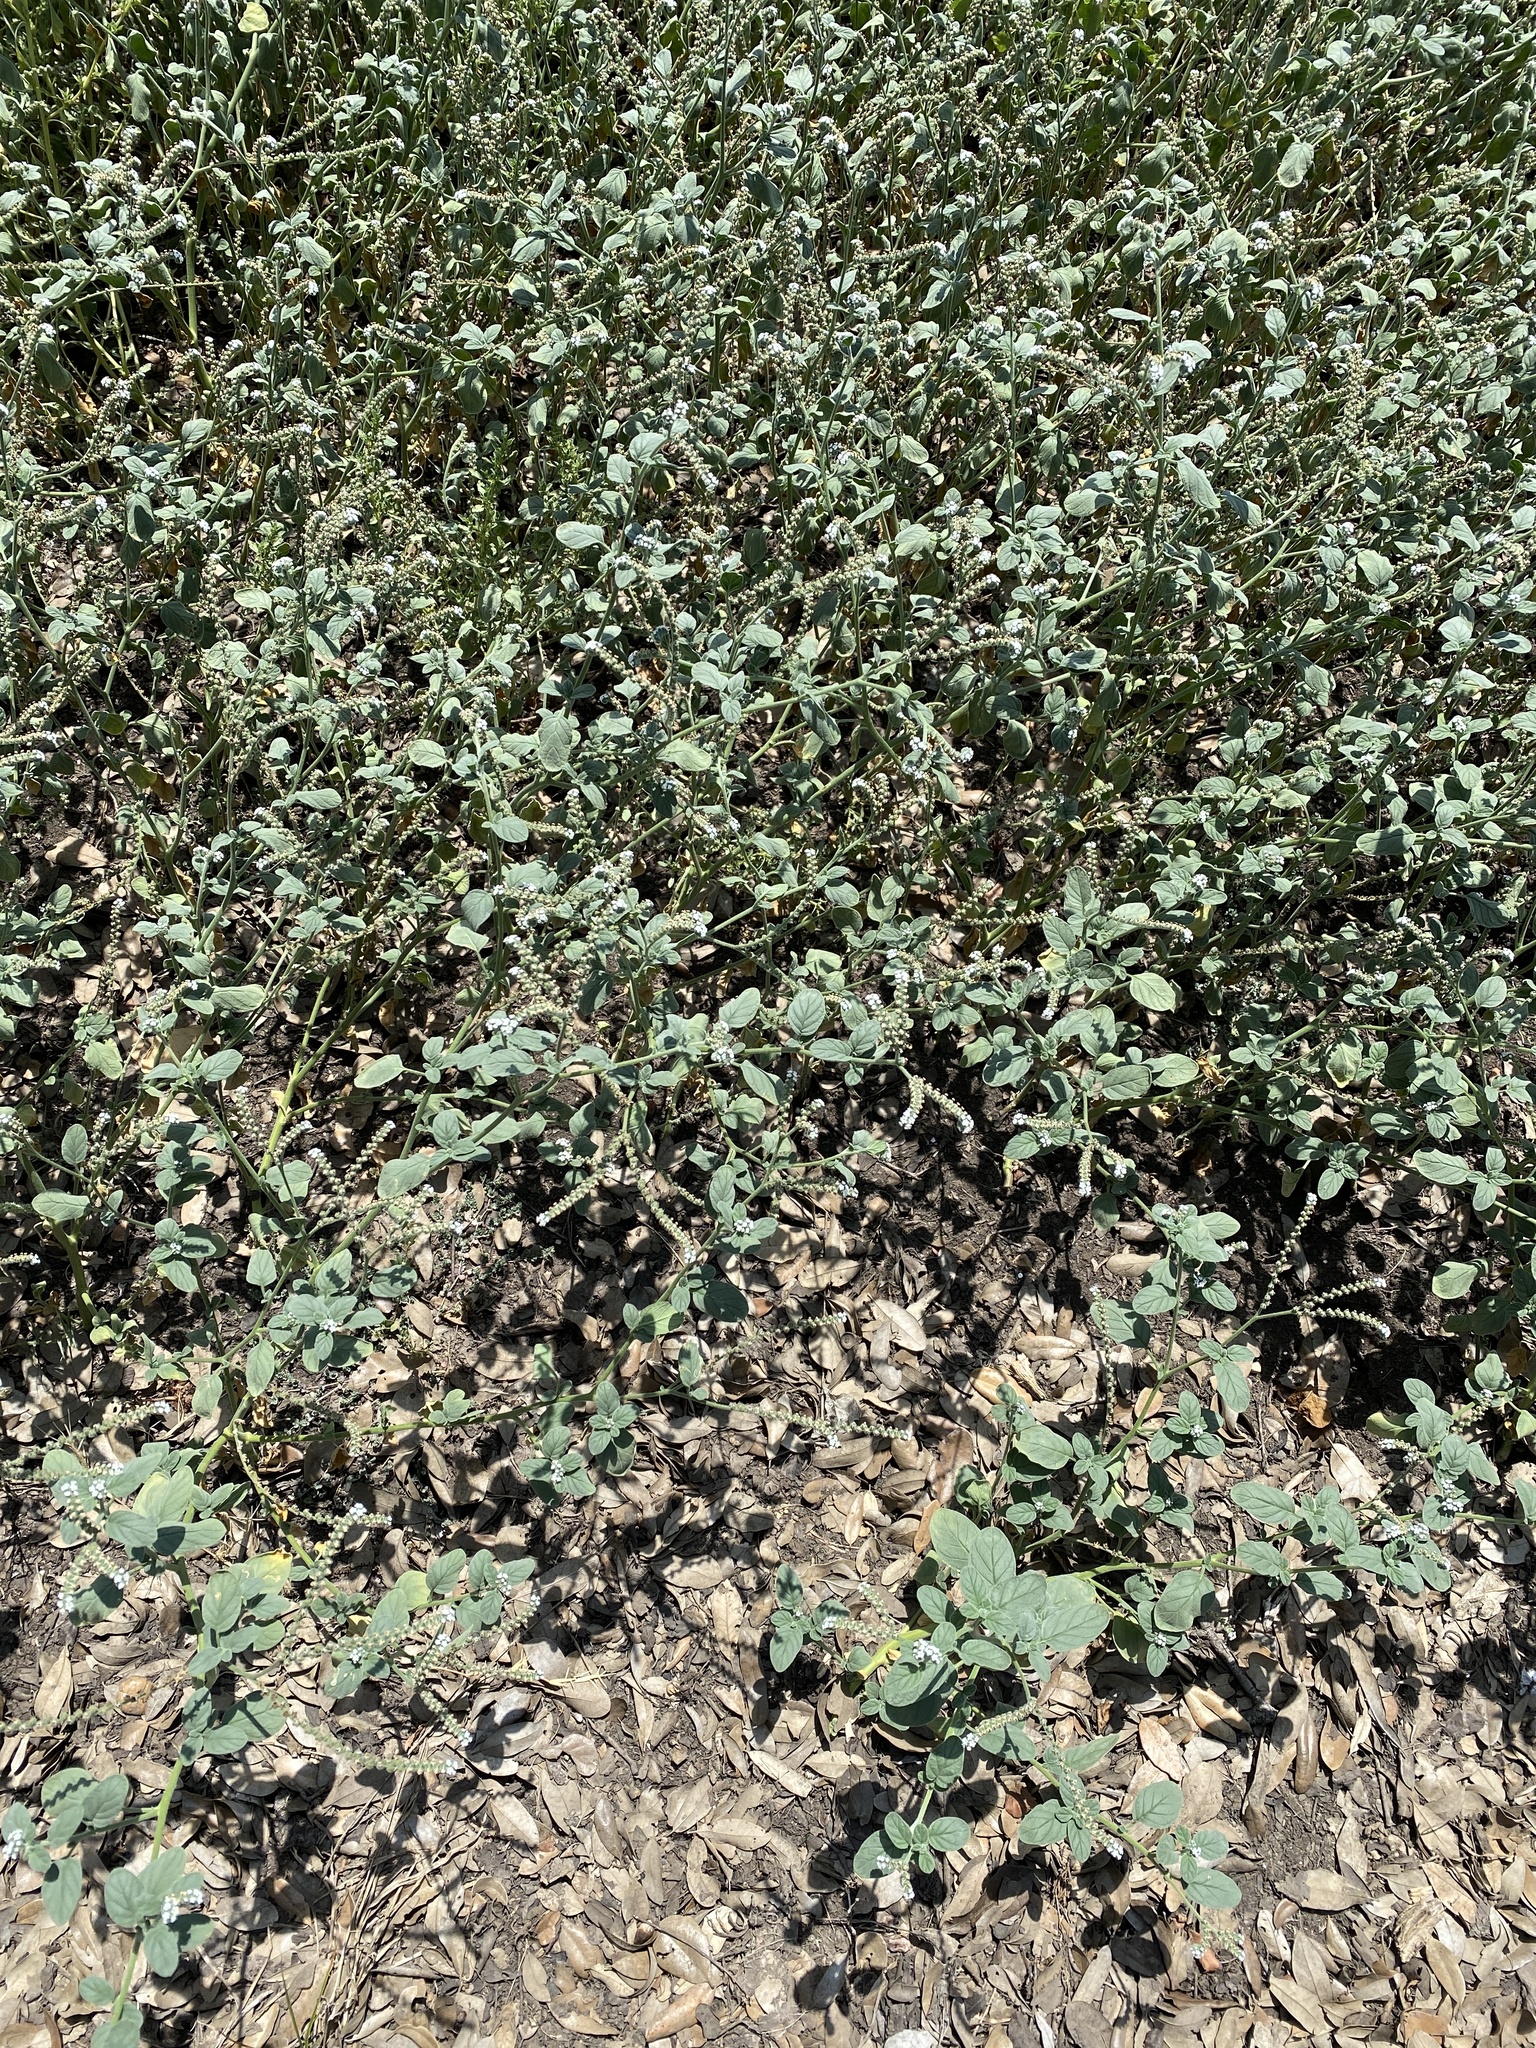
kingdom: Plantae
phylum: Tracheophyta
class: Magnoliopsida
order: Boraginales
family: Heliotropiaceae
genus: Heliotropium
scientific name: Heliotropium angiospermum
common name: Eye bright
